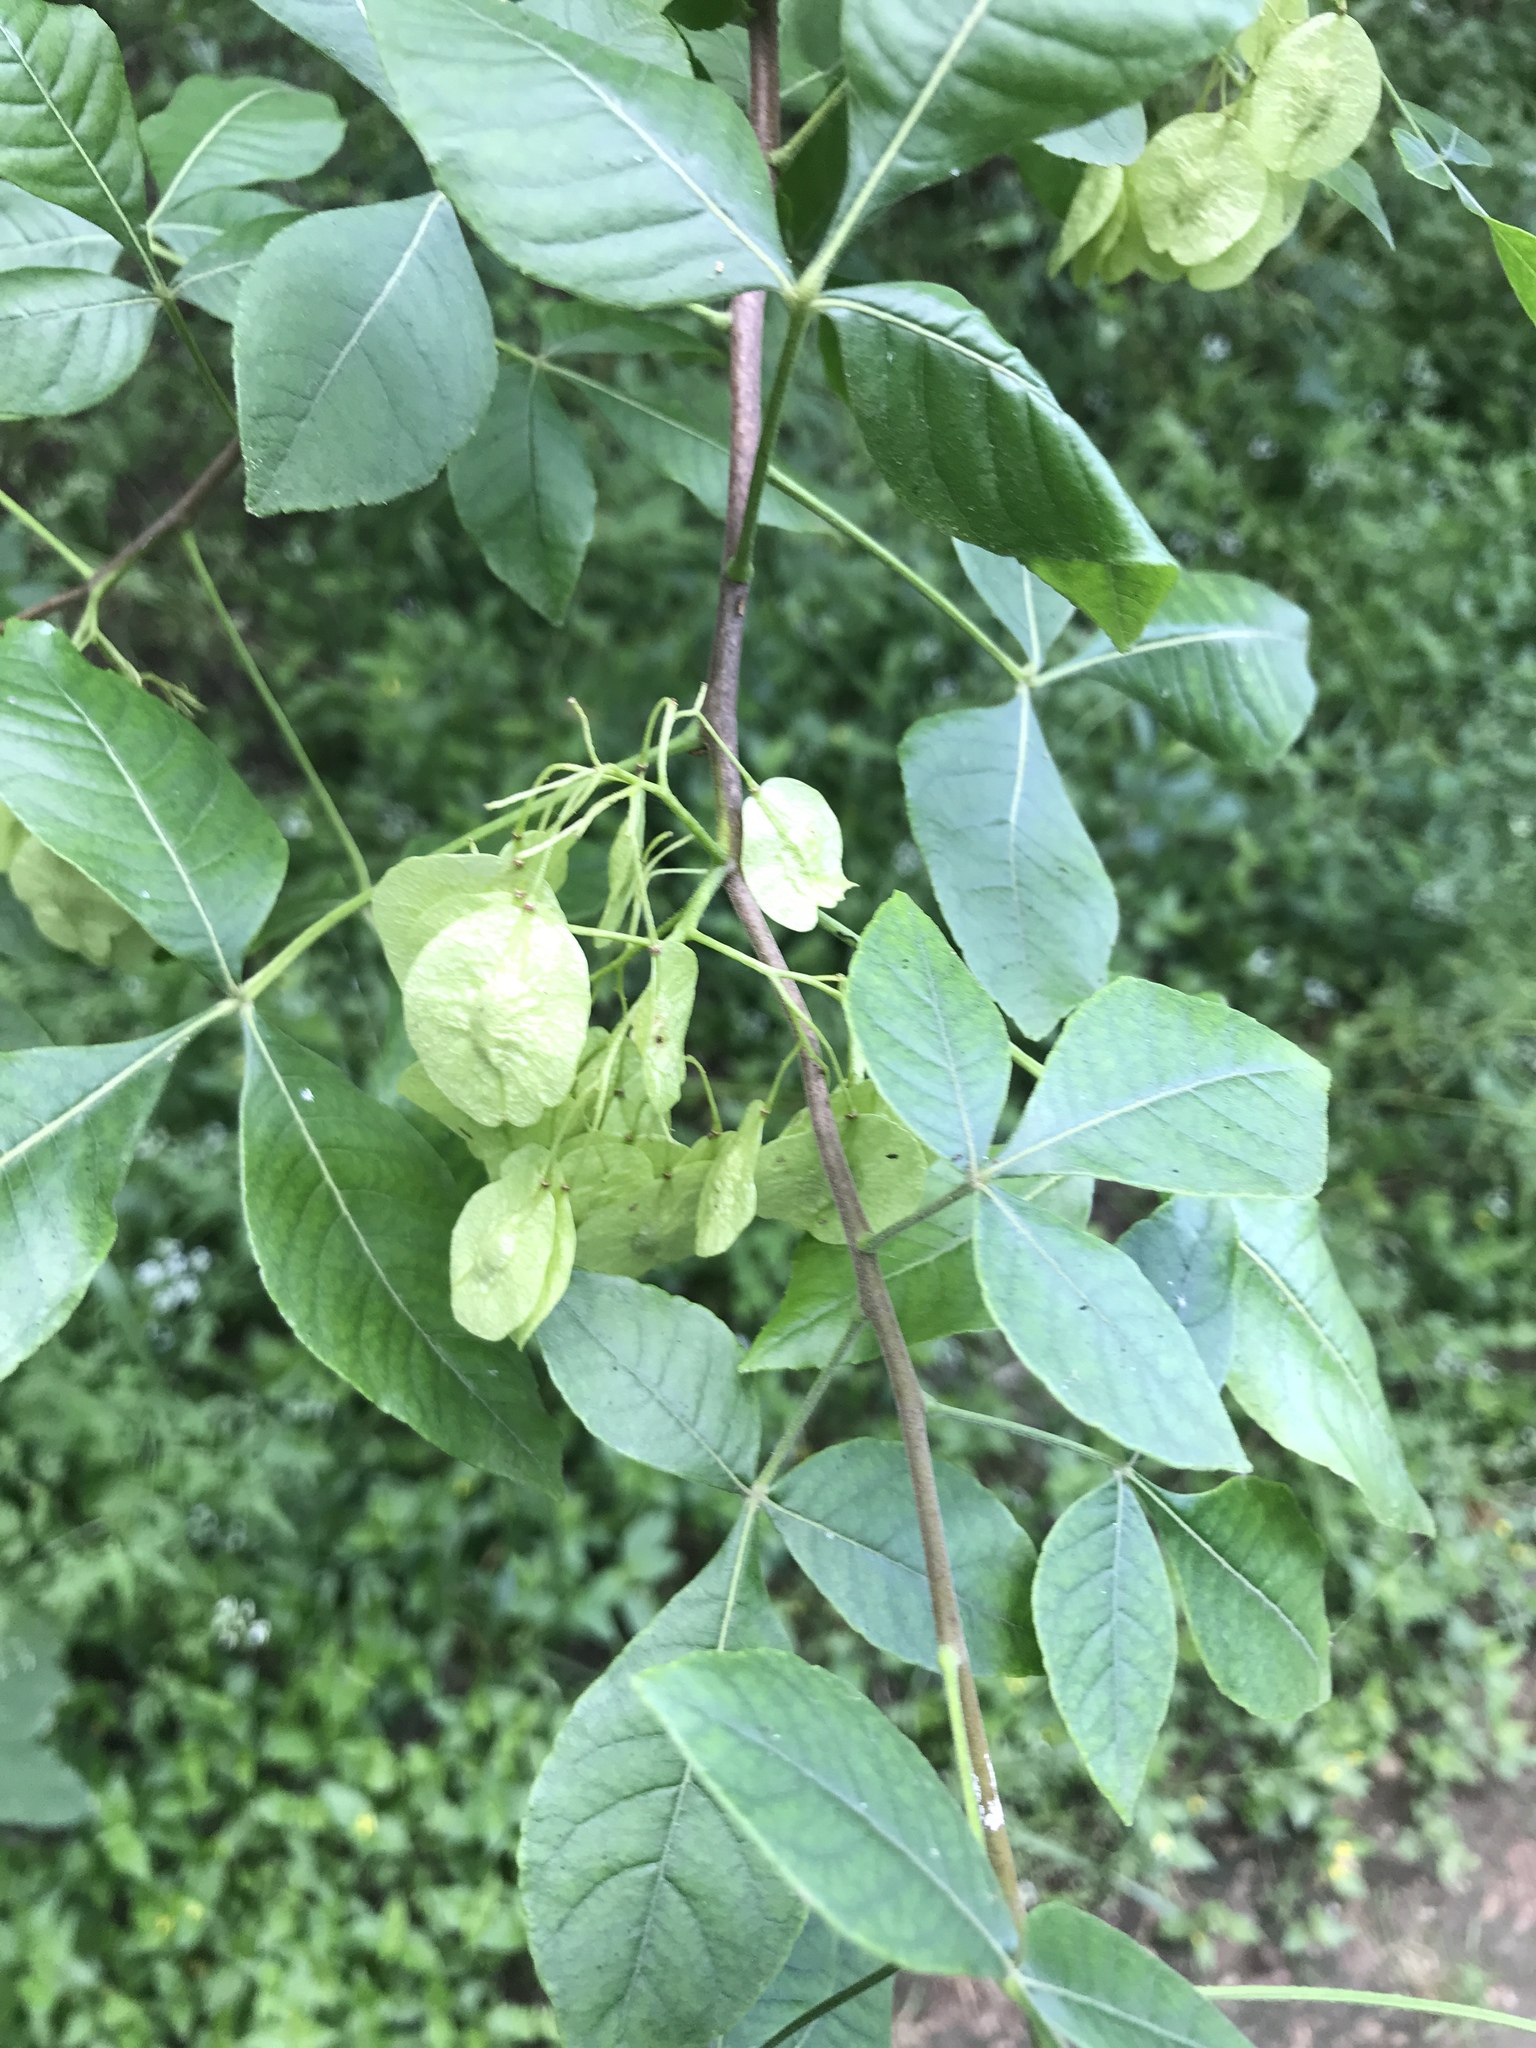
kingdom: Plantae
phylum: Tracheophyta
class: Magnoliopsida
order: Sapindales
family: Rutaceae
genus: Ptelea
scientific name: Ptelea trifoliata
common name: Common hop-tree
